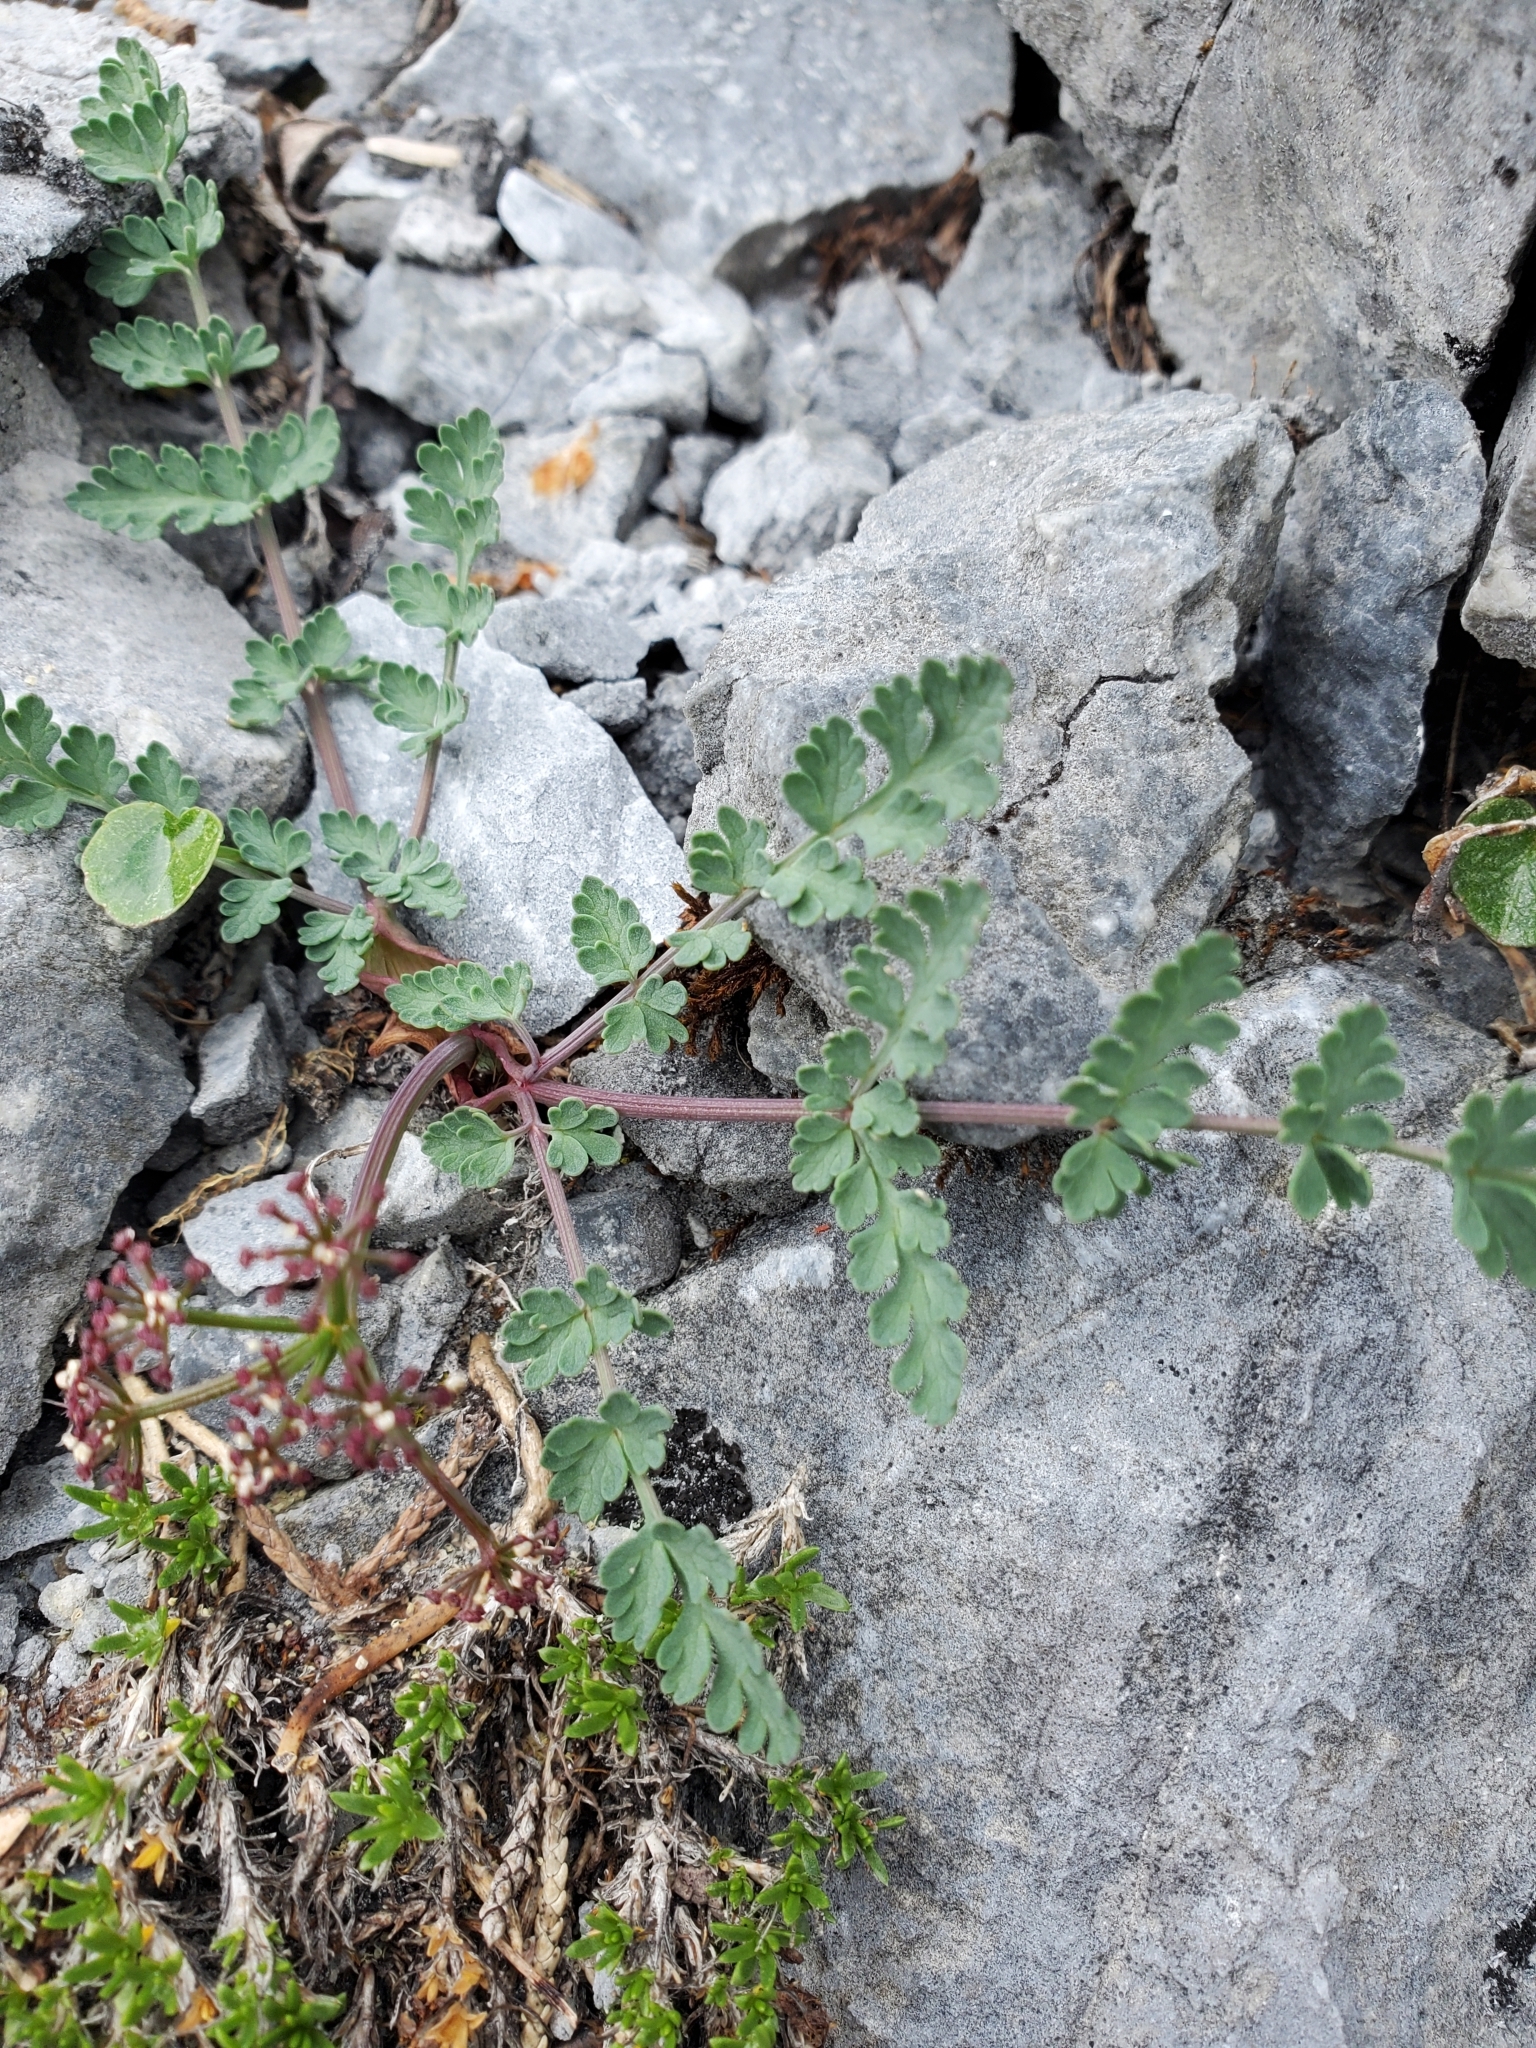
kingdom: Plantae
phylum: Tracheophyta
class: Magnoliopsida
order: Apiales
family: Apiaceae
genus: Lomatium
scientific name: Lomatium martindalei
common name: Cascade desert-parsley
